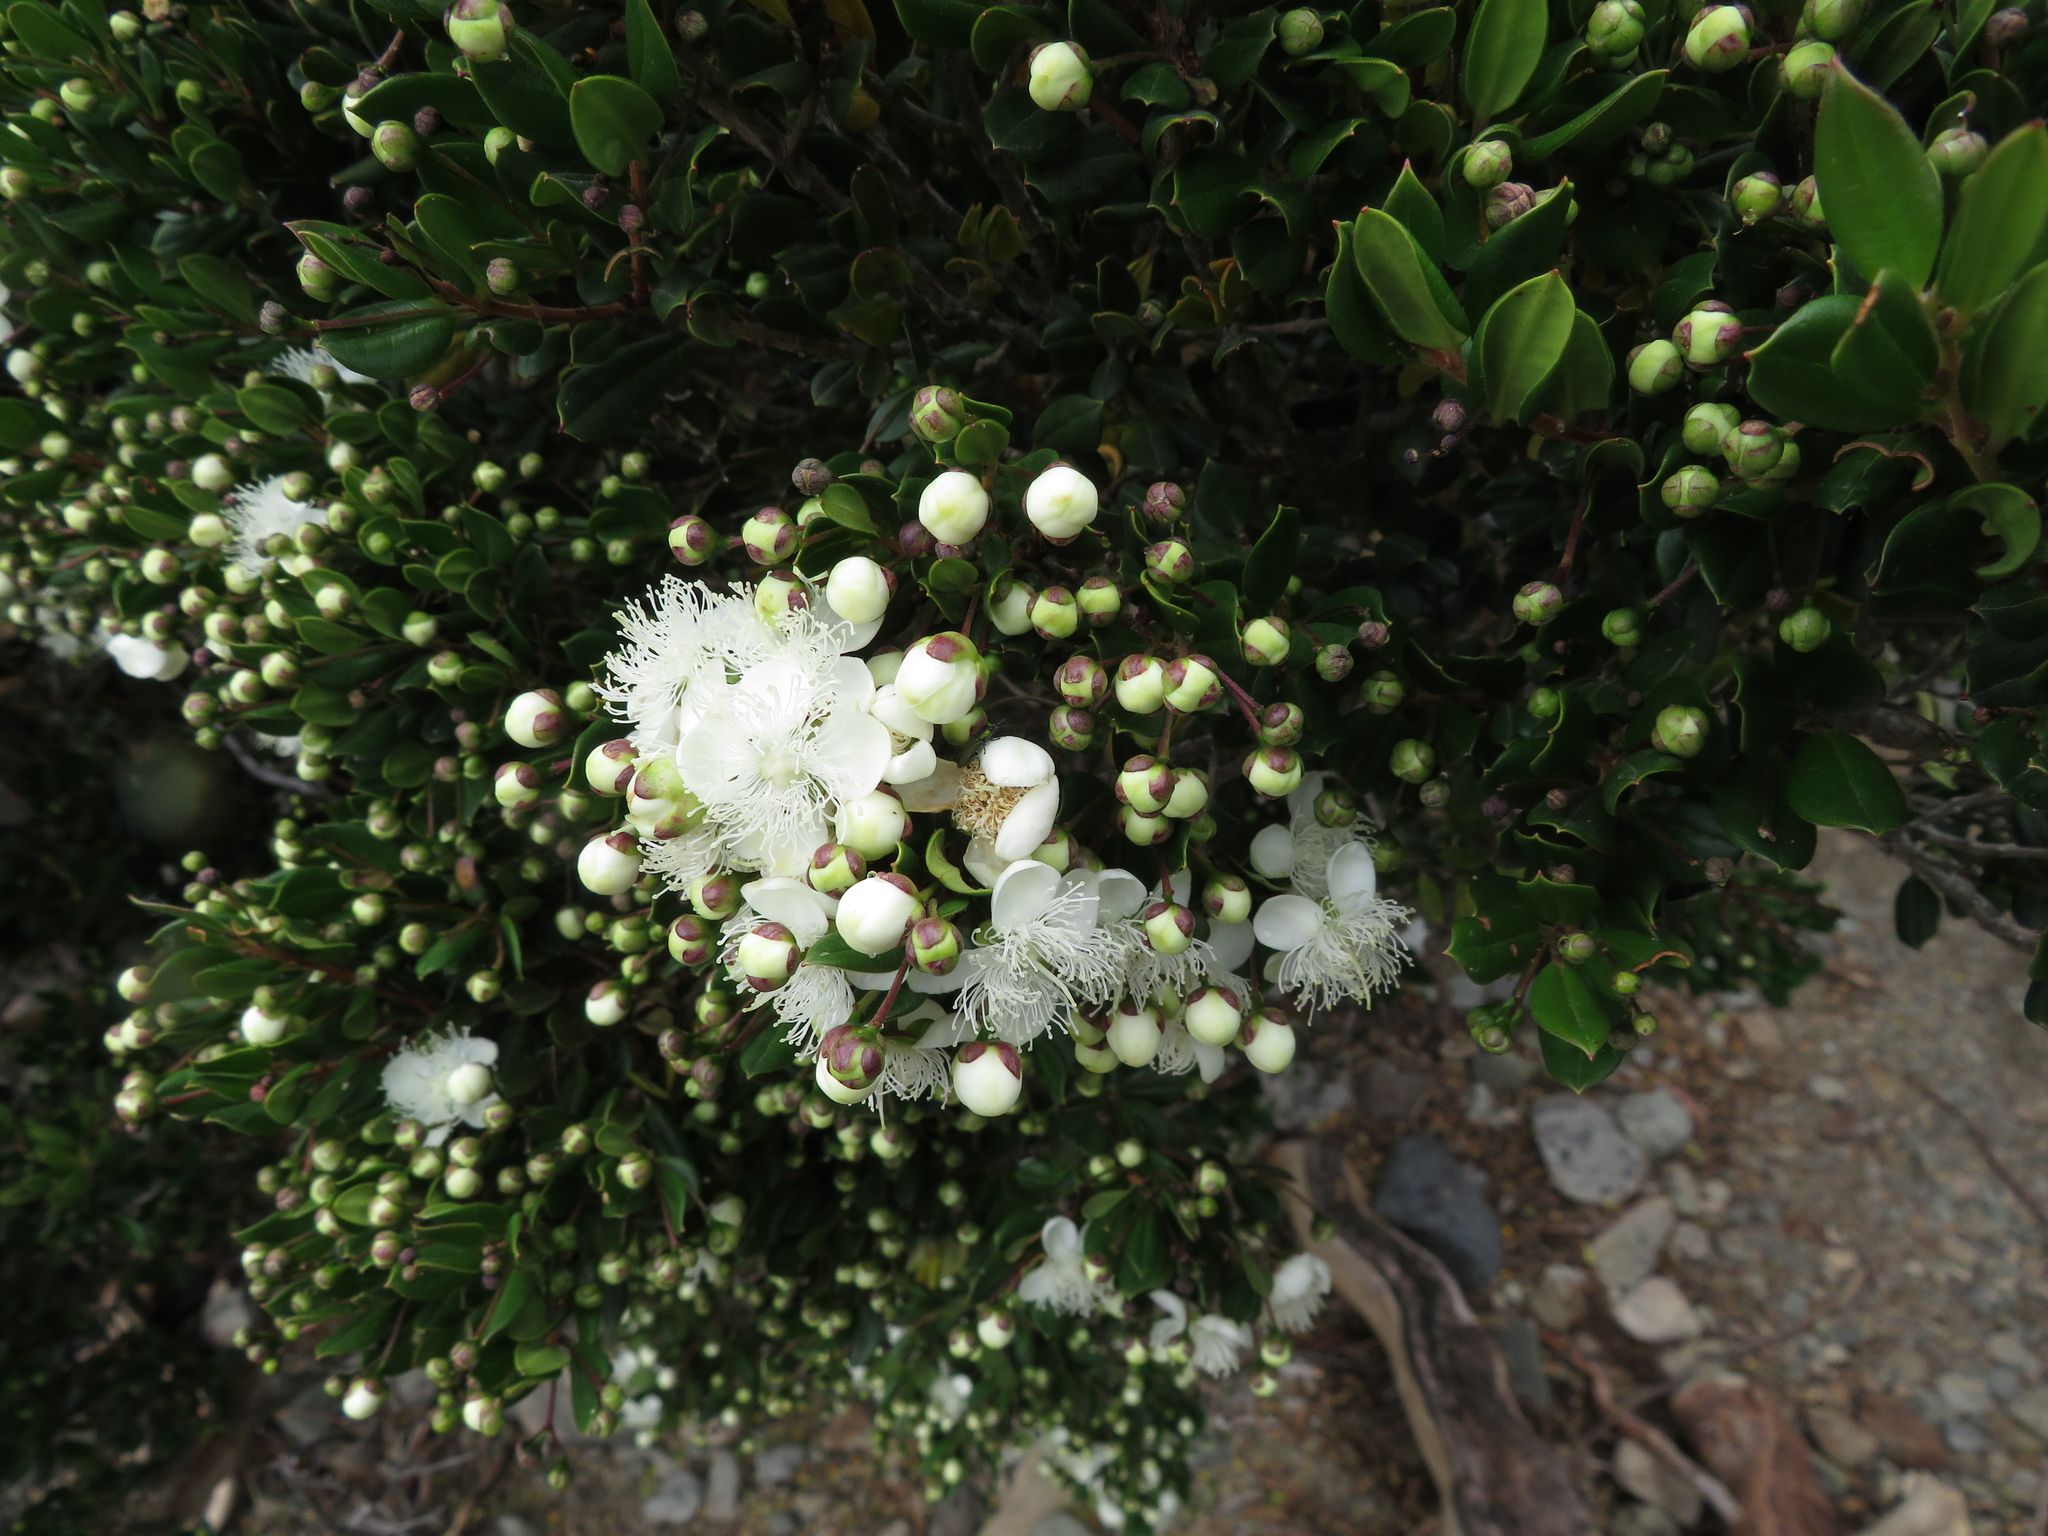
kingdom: Plantae
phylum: Tracheophyta
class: Magnoliopsida
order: Myrtales
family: Myrtaceae
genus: Luma
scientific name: Luma apiculata
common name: Chilean myrtle
